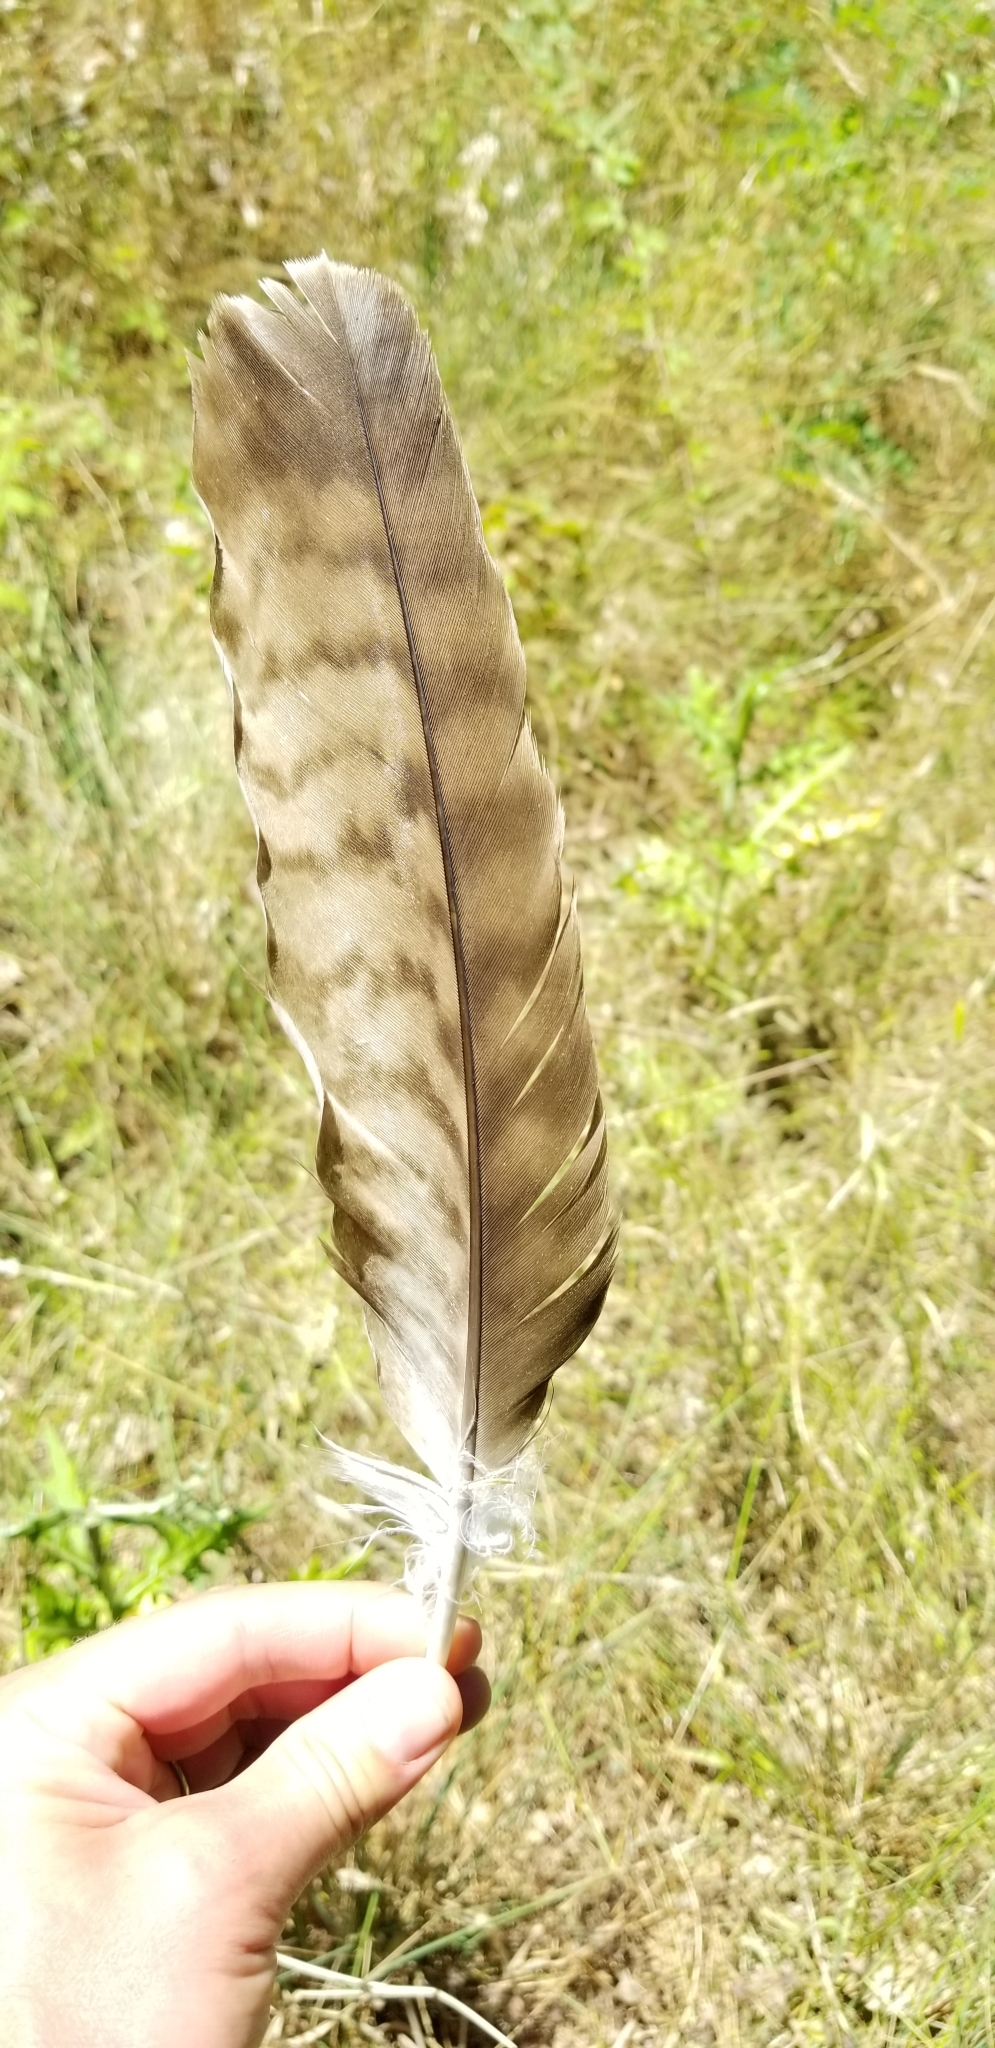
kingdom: Animalia
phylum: Chordata
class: Aves
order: Accipitriformes
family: Accipitridae
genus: Buteo
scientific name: Buteo jamaicensis
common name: Red-tailed hawk
